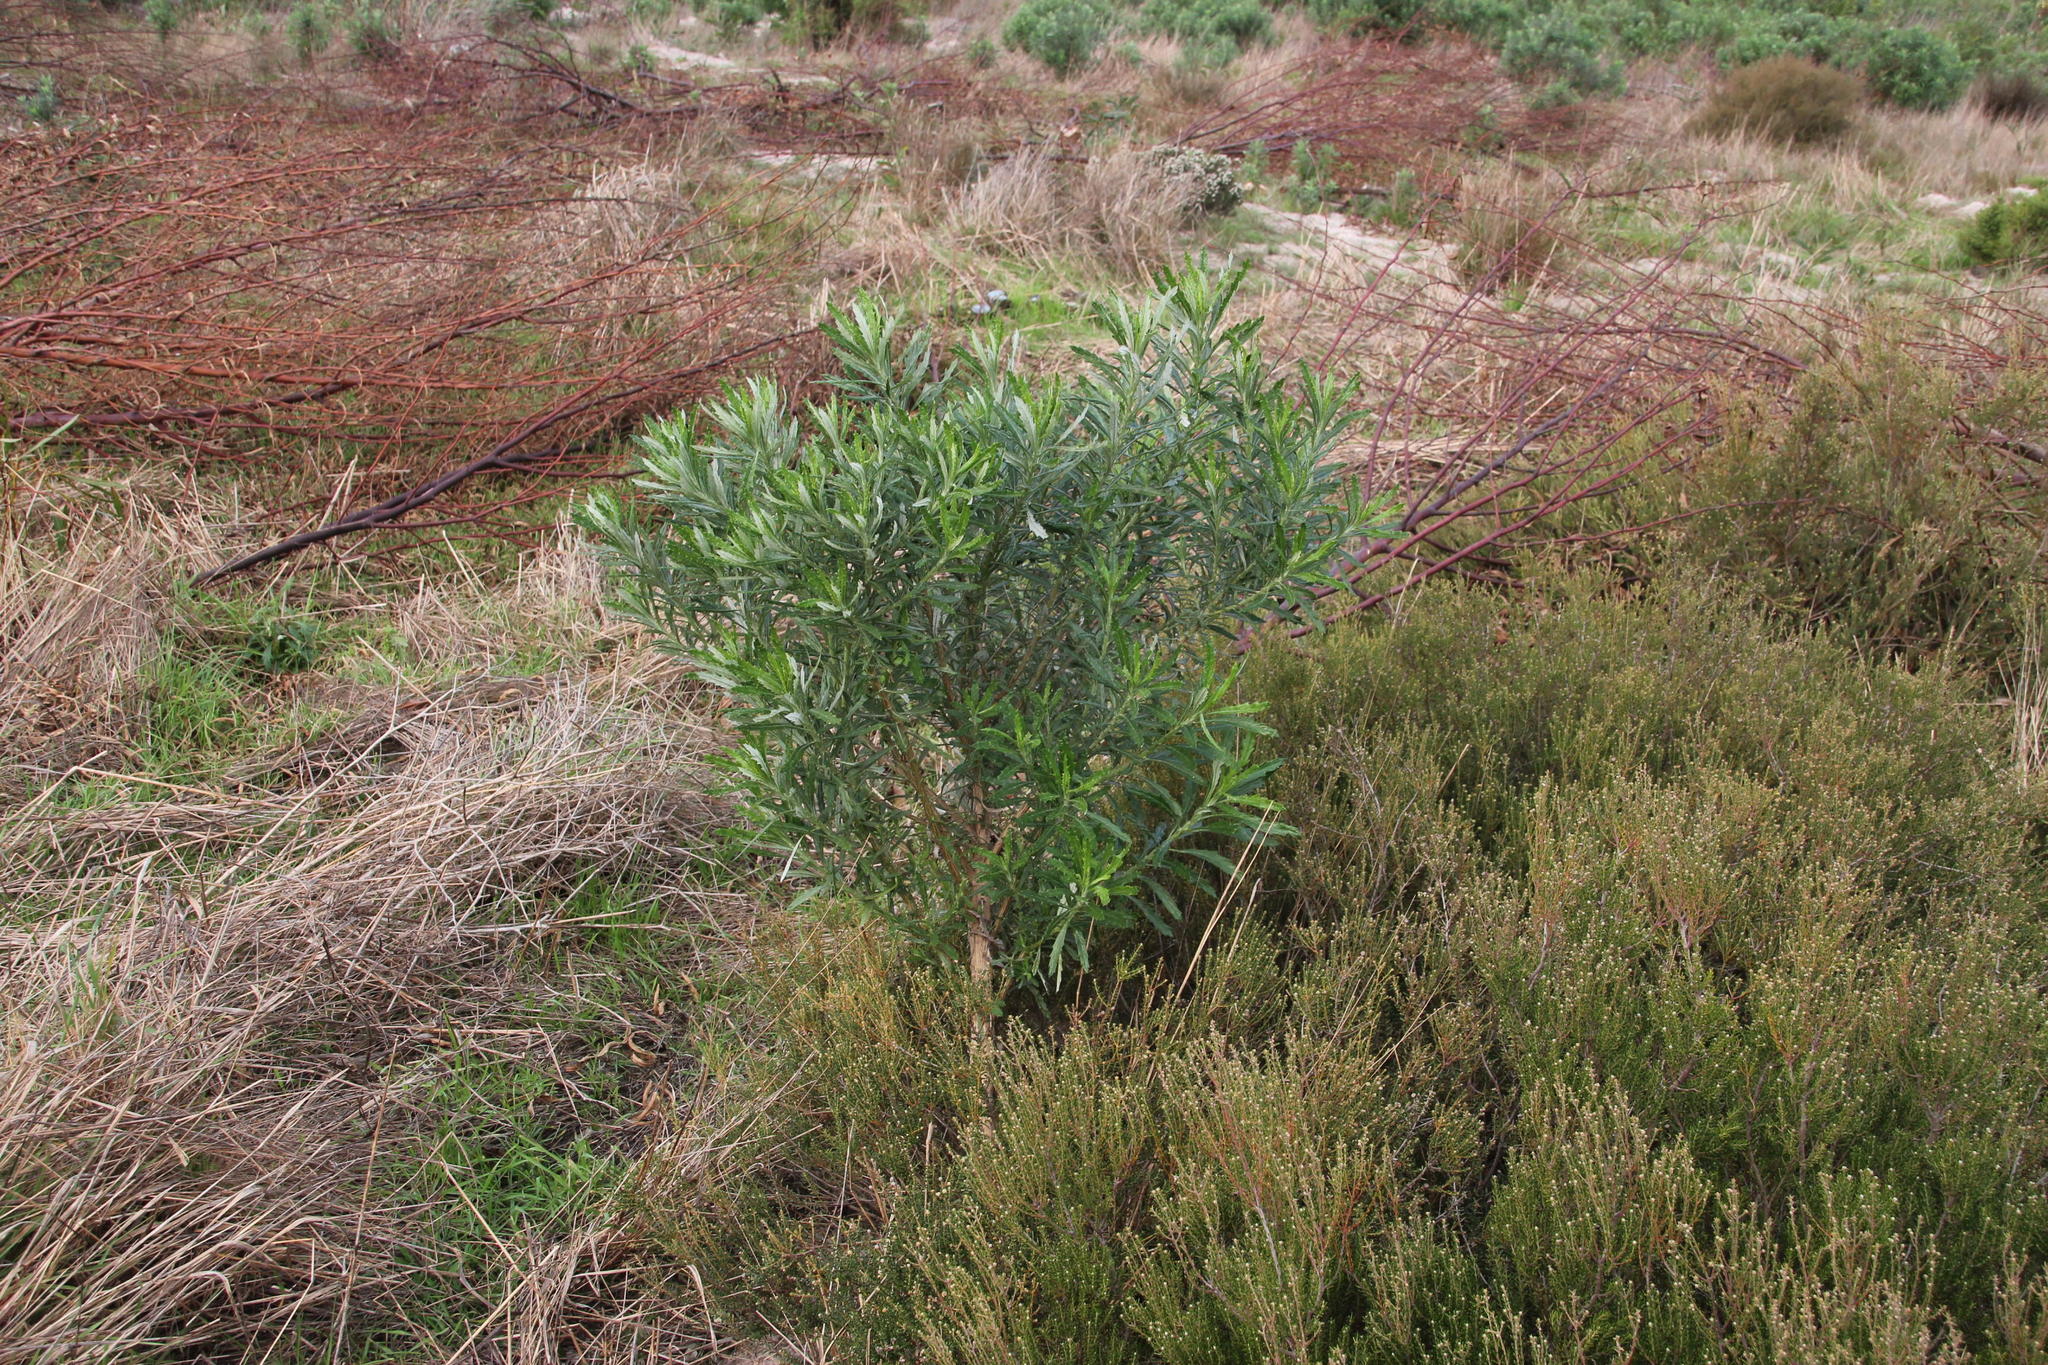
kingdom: Plantae
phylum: Tracheophyta
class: Magnoliopsida
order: Asterales
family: Asteraceae
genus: Senecio
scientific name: Senecio pterophorus
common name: Shoddy ragwort
